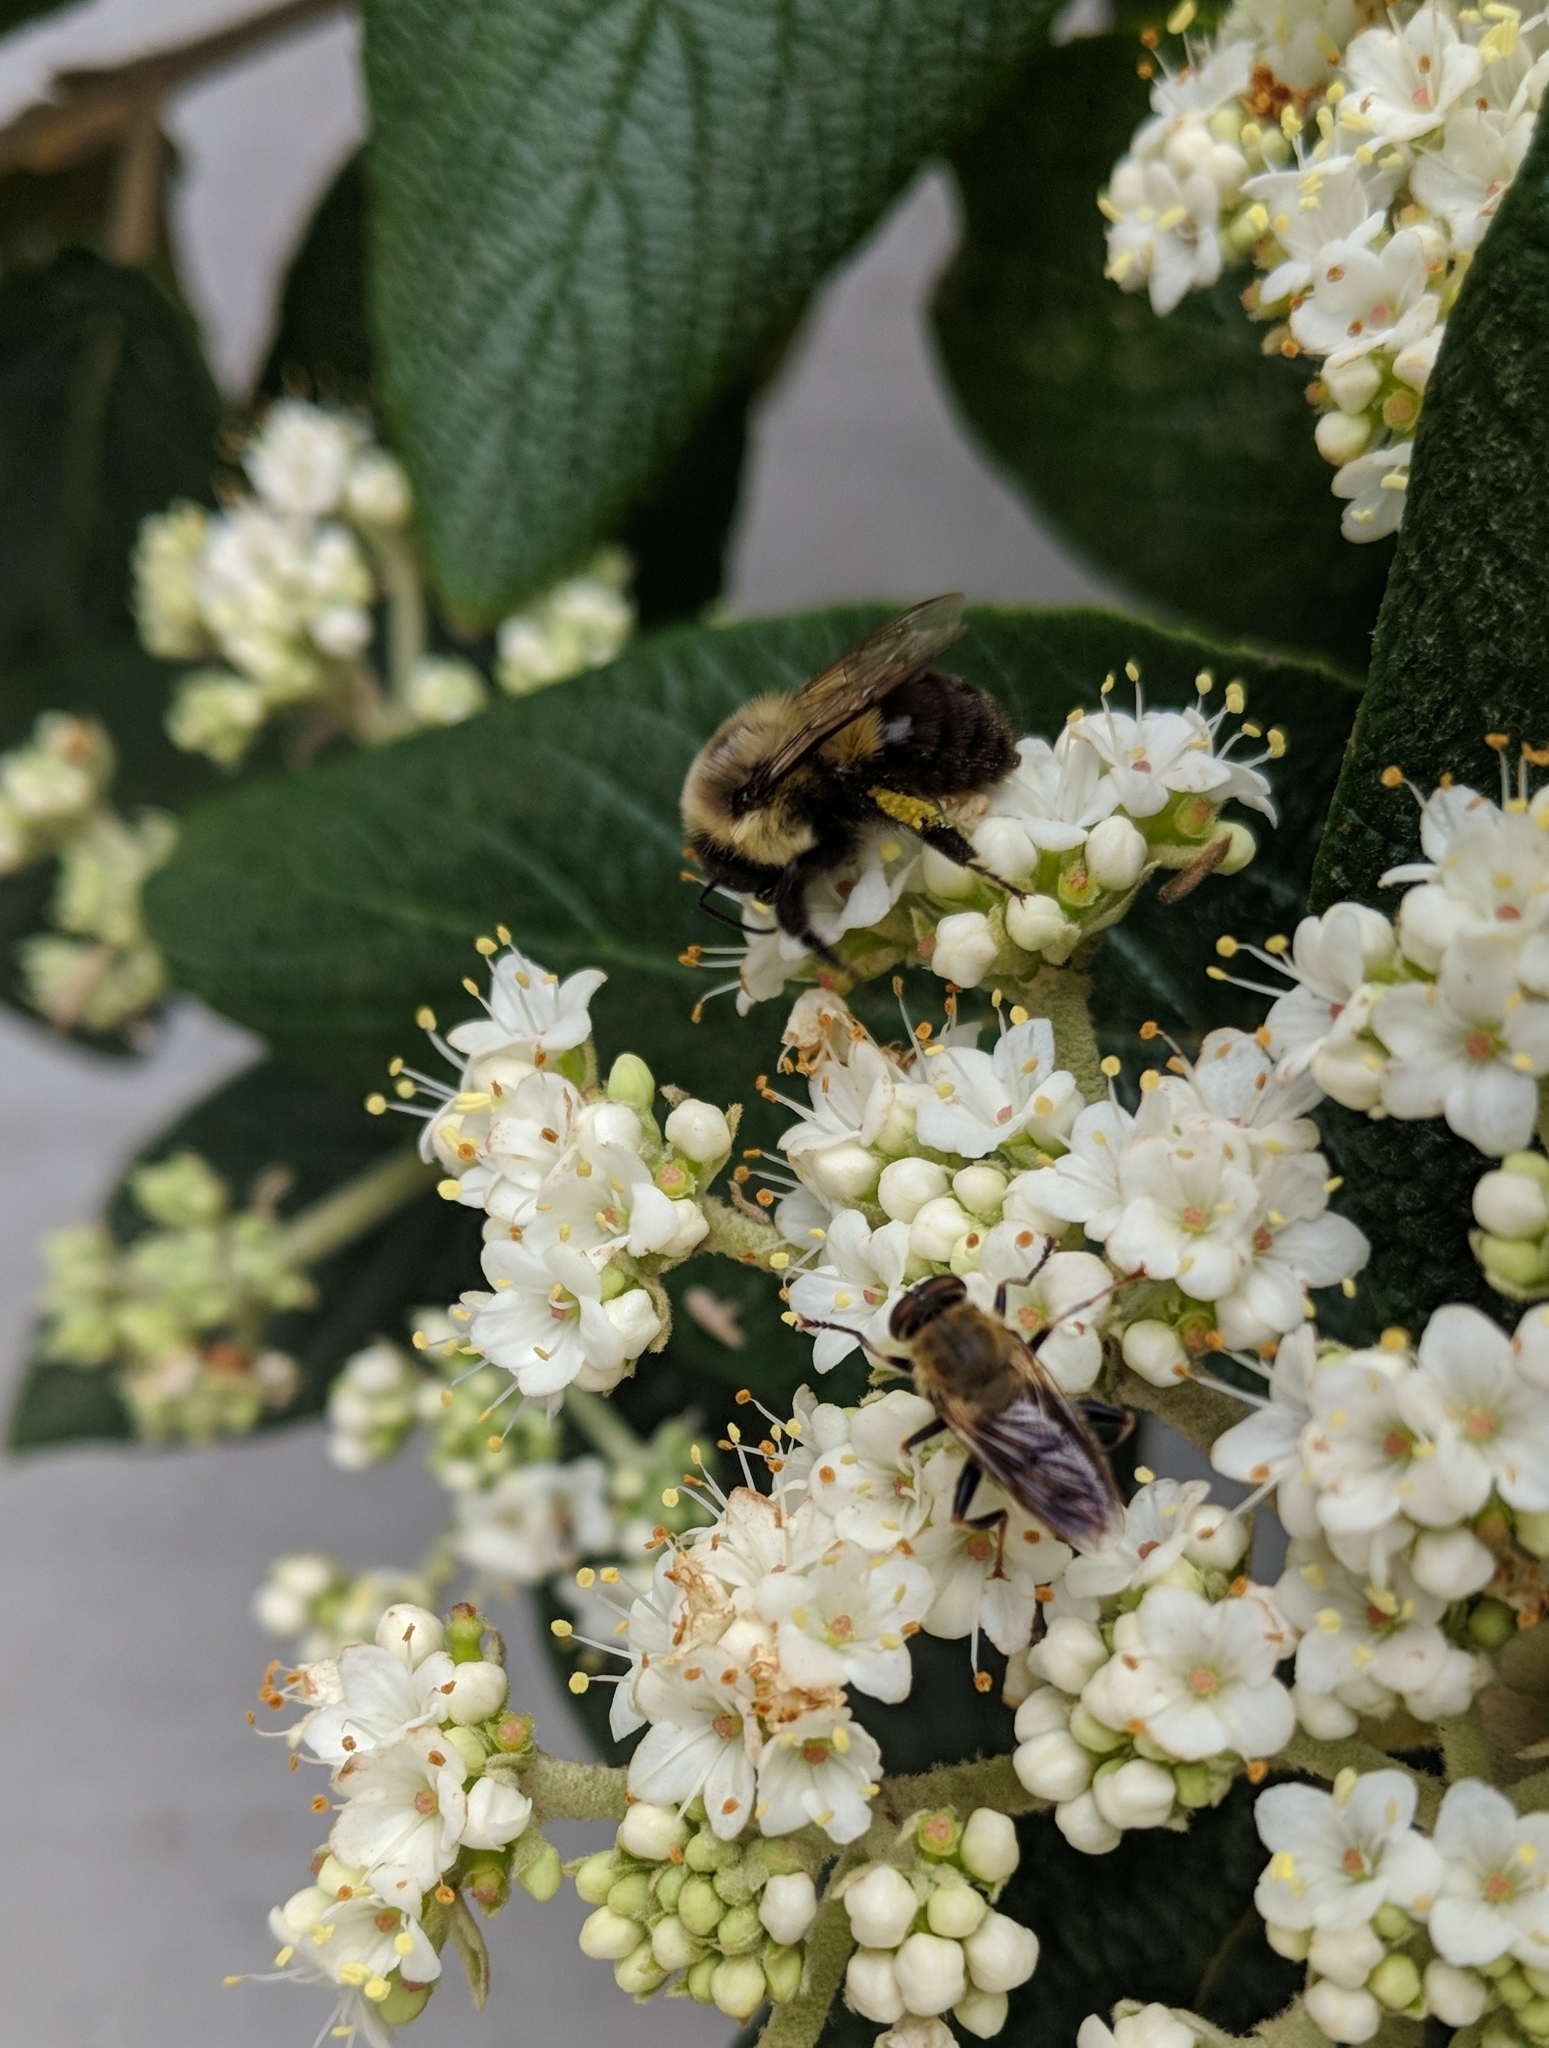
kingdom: Animalia
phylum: Arthropoda
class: Insecta
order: Diptera
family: Syrphidae
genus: Pterallastes
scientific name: Pterallastes thoracicus
